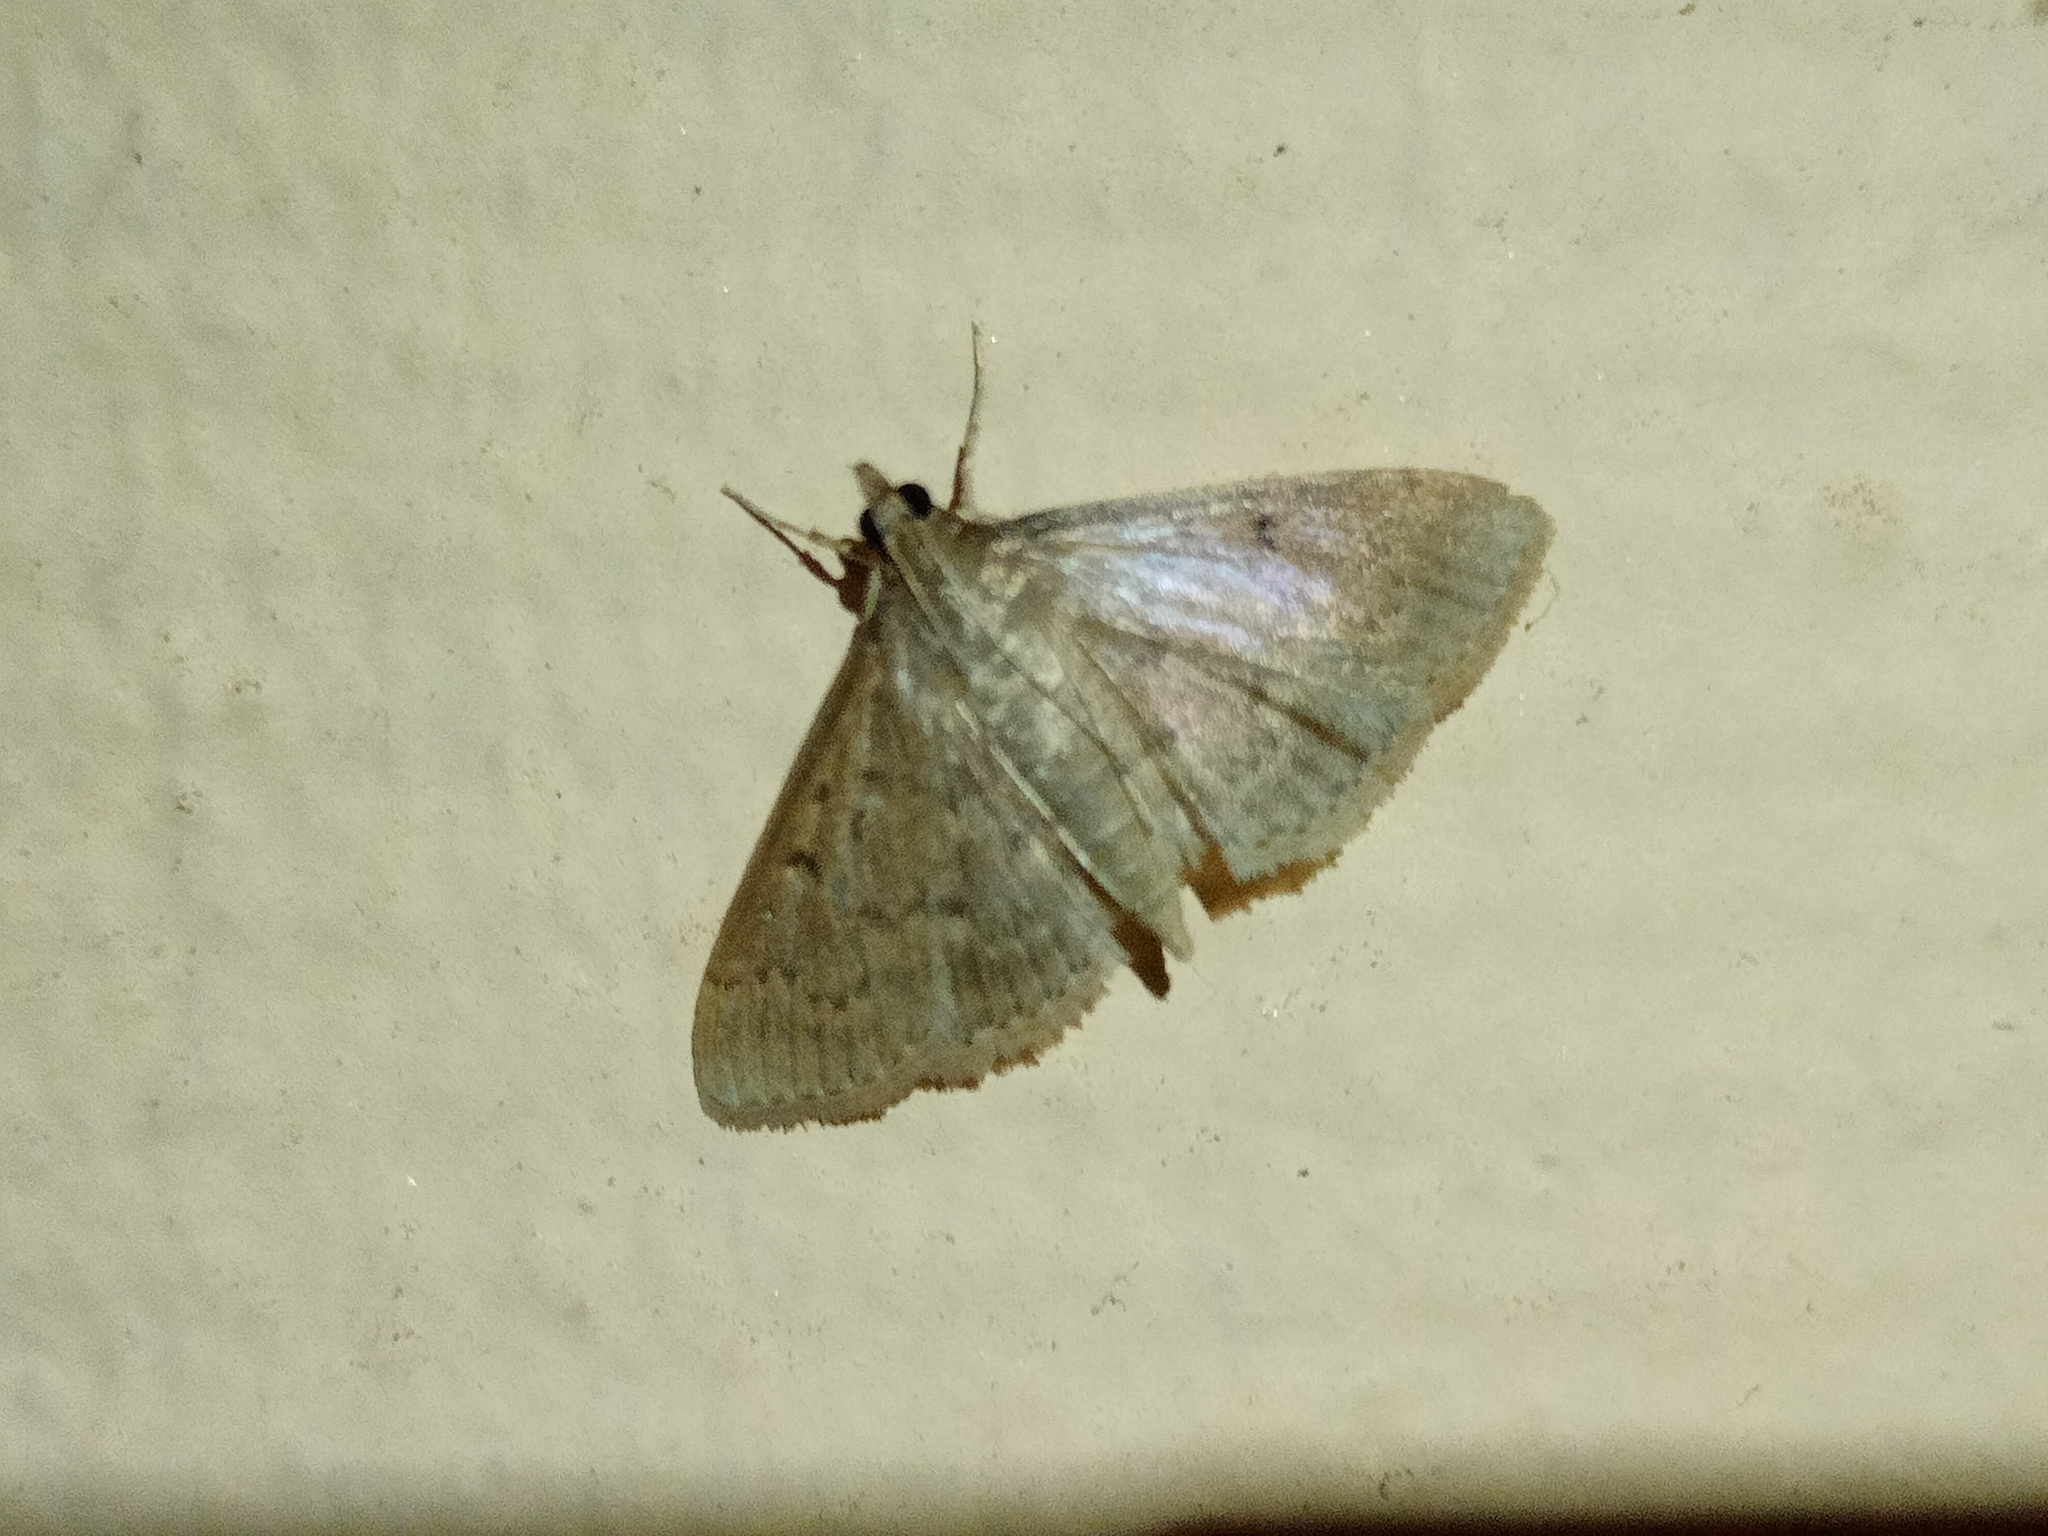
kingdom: Animalia
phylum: Arthropoda
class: Insecta
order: Lepidoptera
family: Crambidae
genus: Herpetogramma
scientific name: Herpetogramma licarsisalis
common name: Grass webworm
